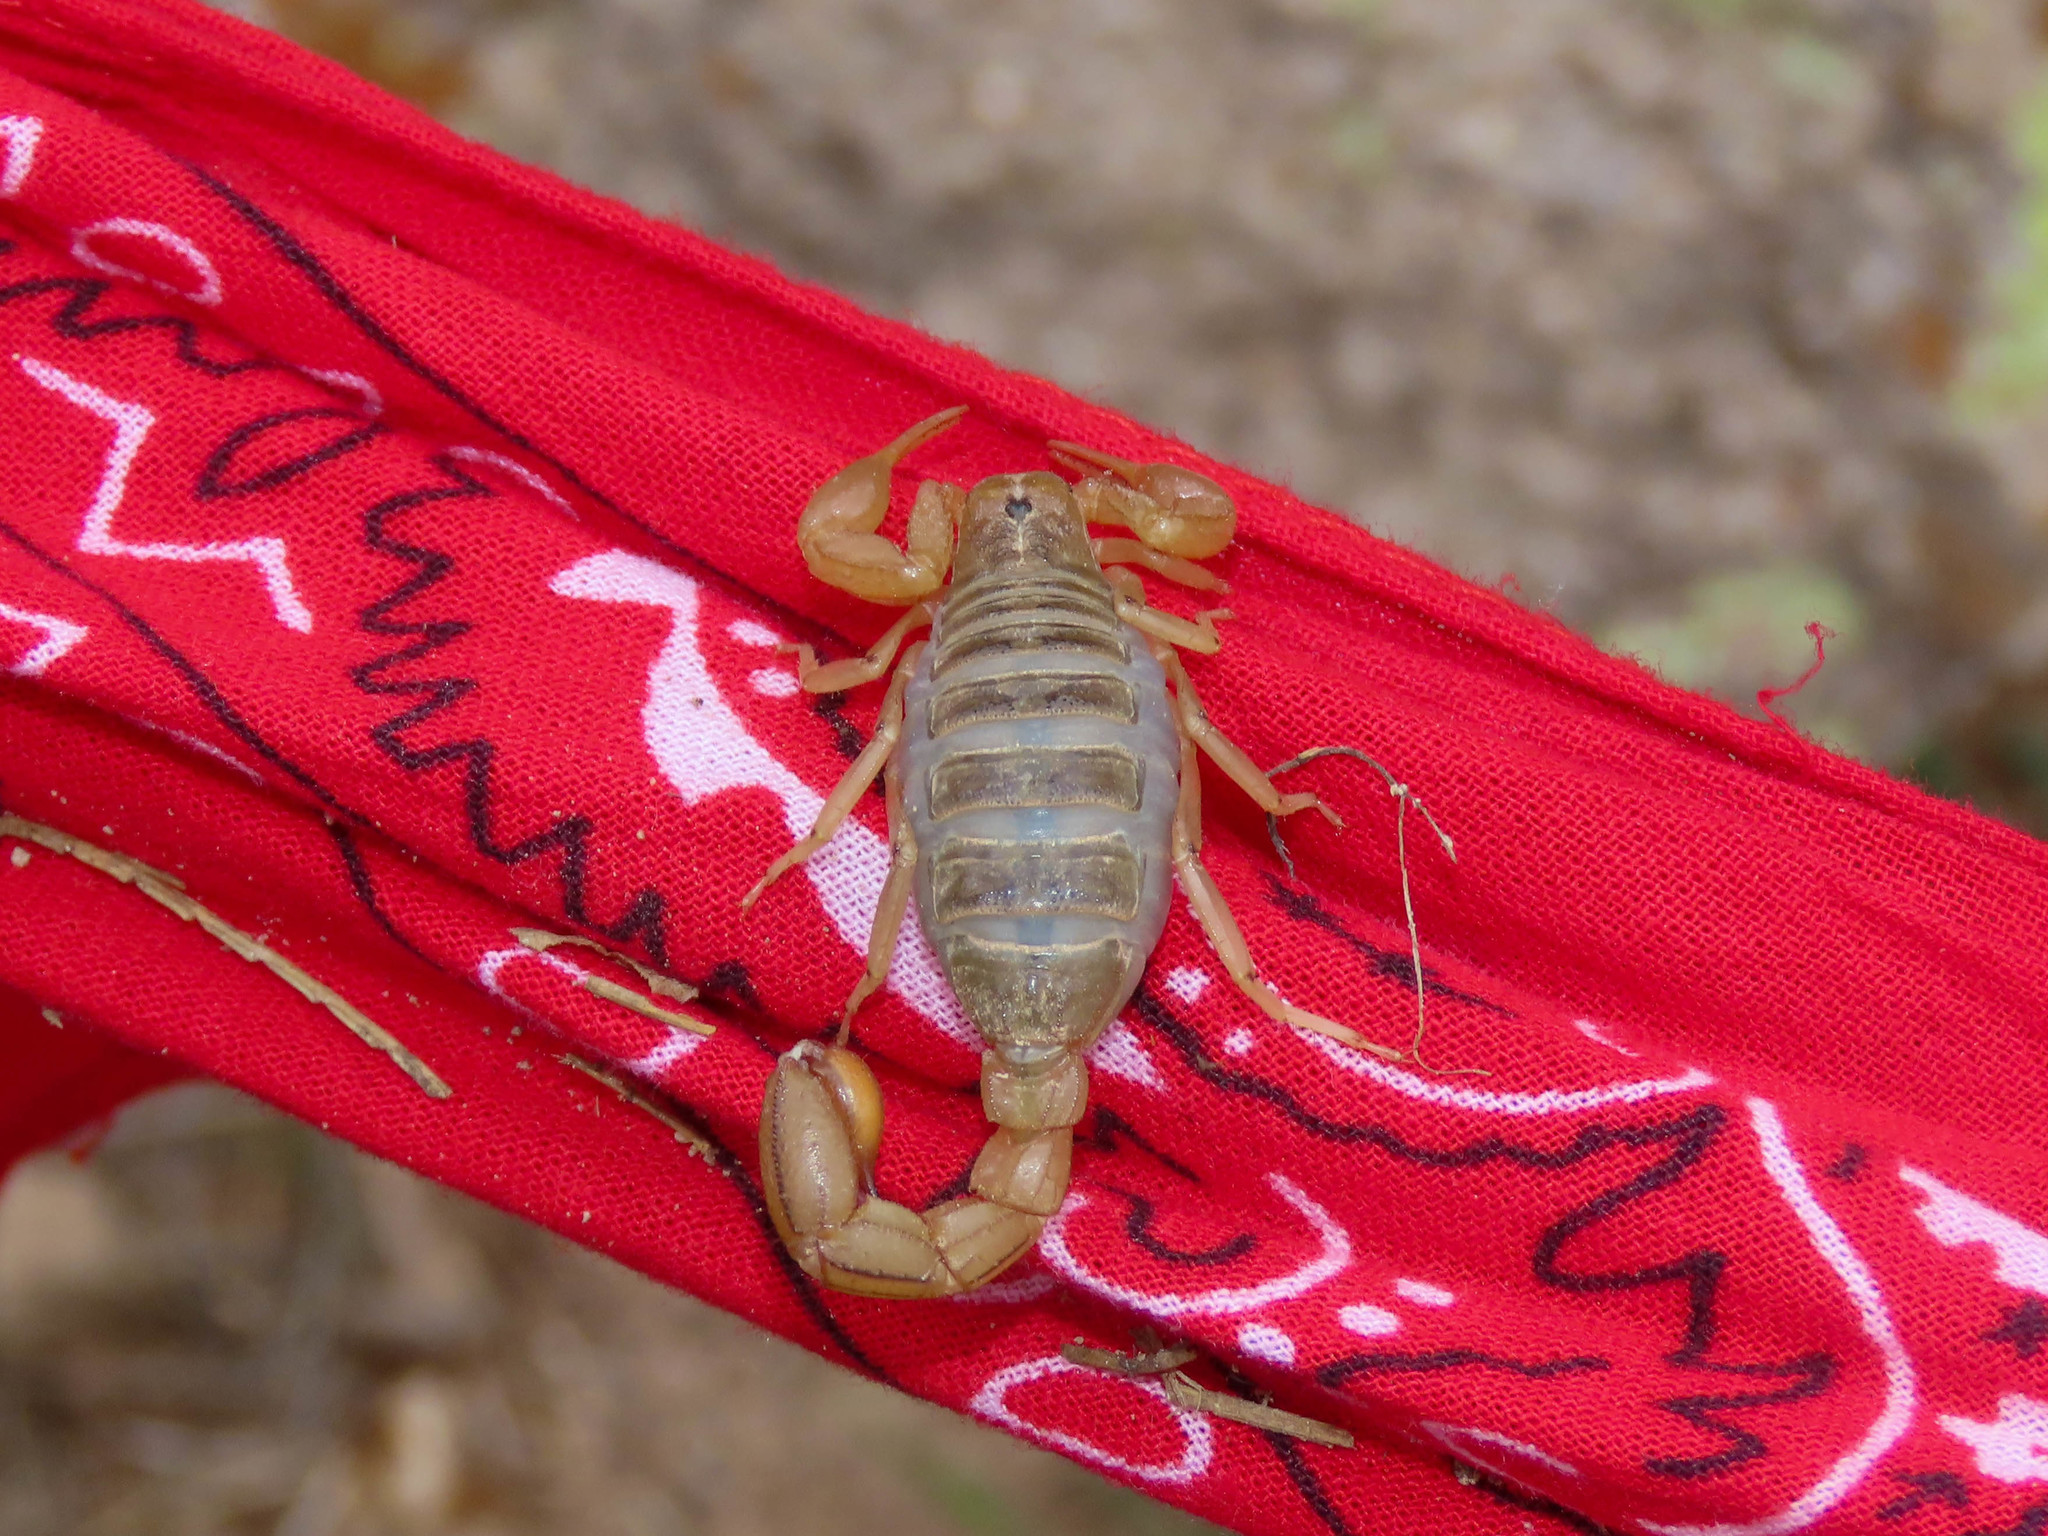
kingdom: Animalia
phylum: Arthropoda
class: Arachnida
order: Scorpiones
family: Vaejovidae
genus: Paravaejovis
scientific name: Paravaejovis spinigerus
